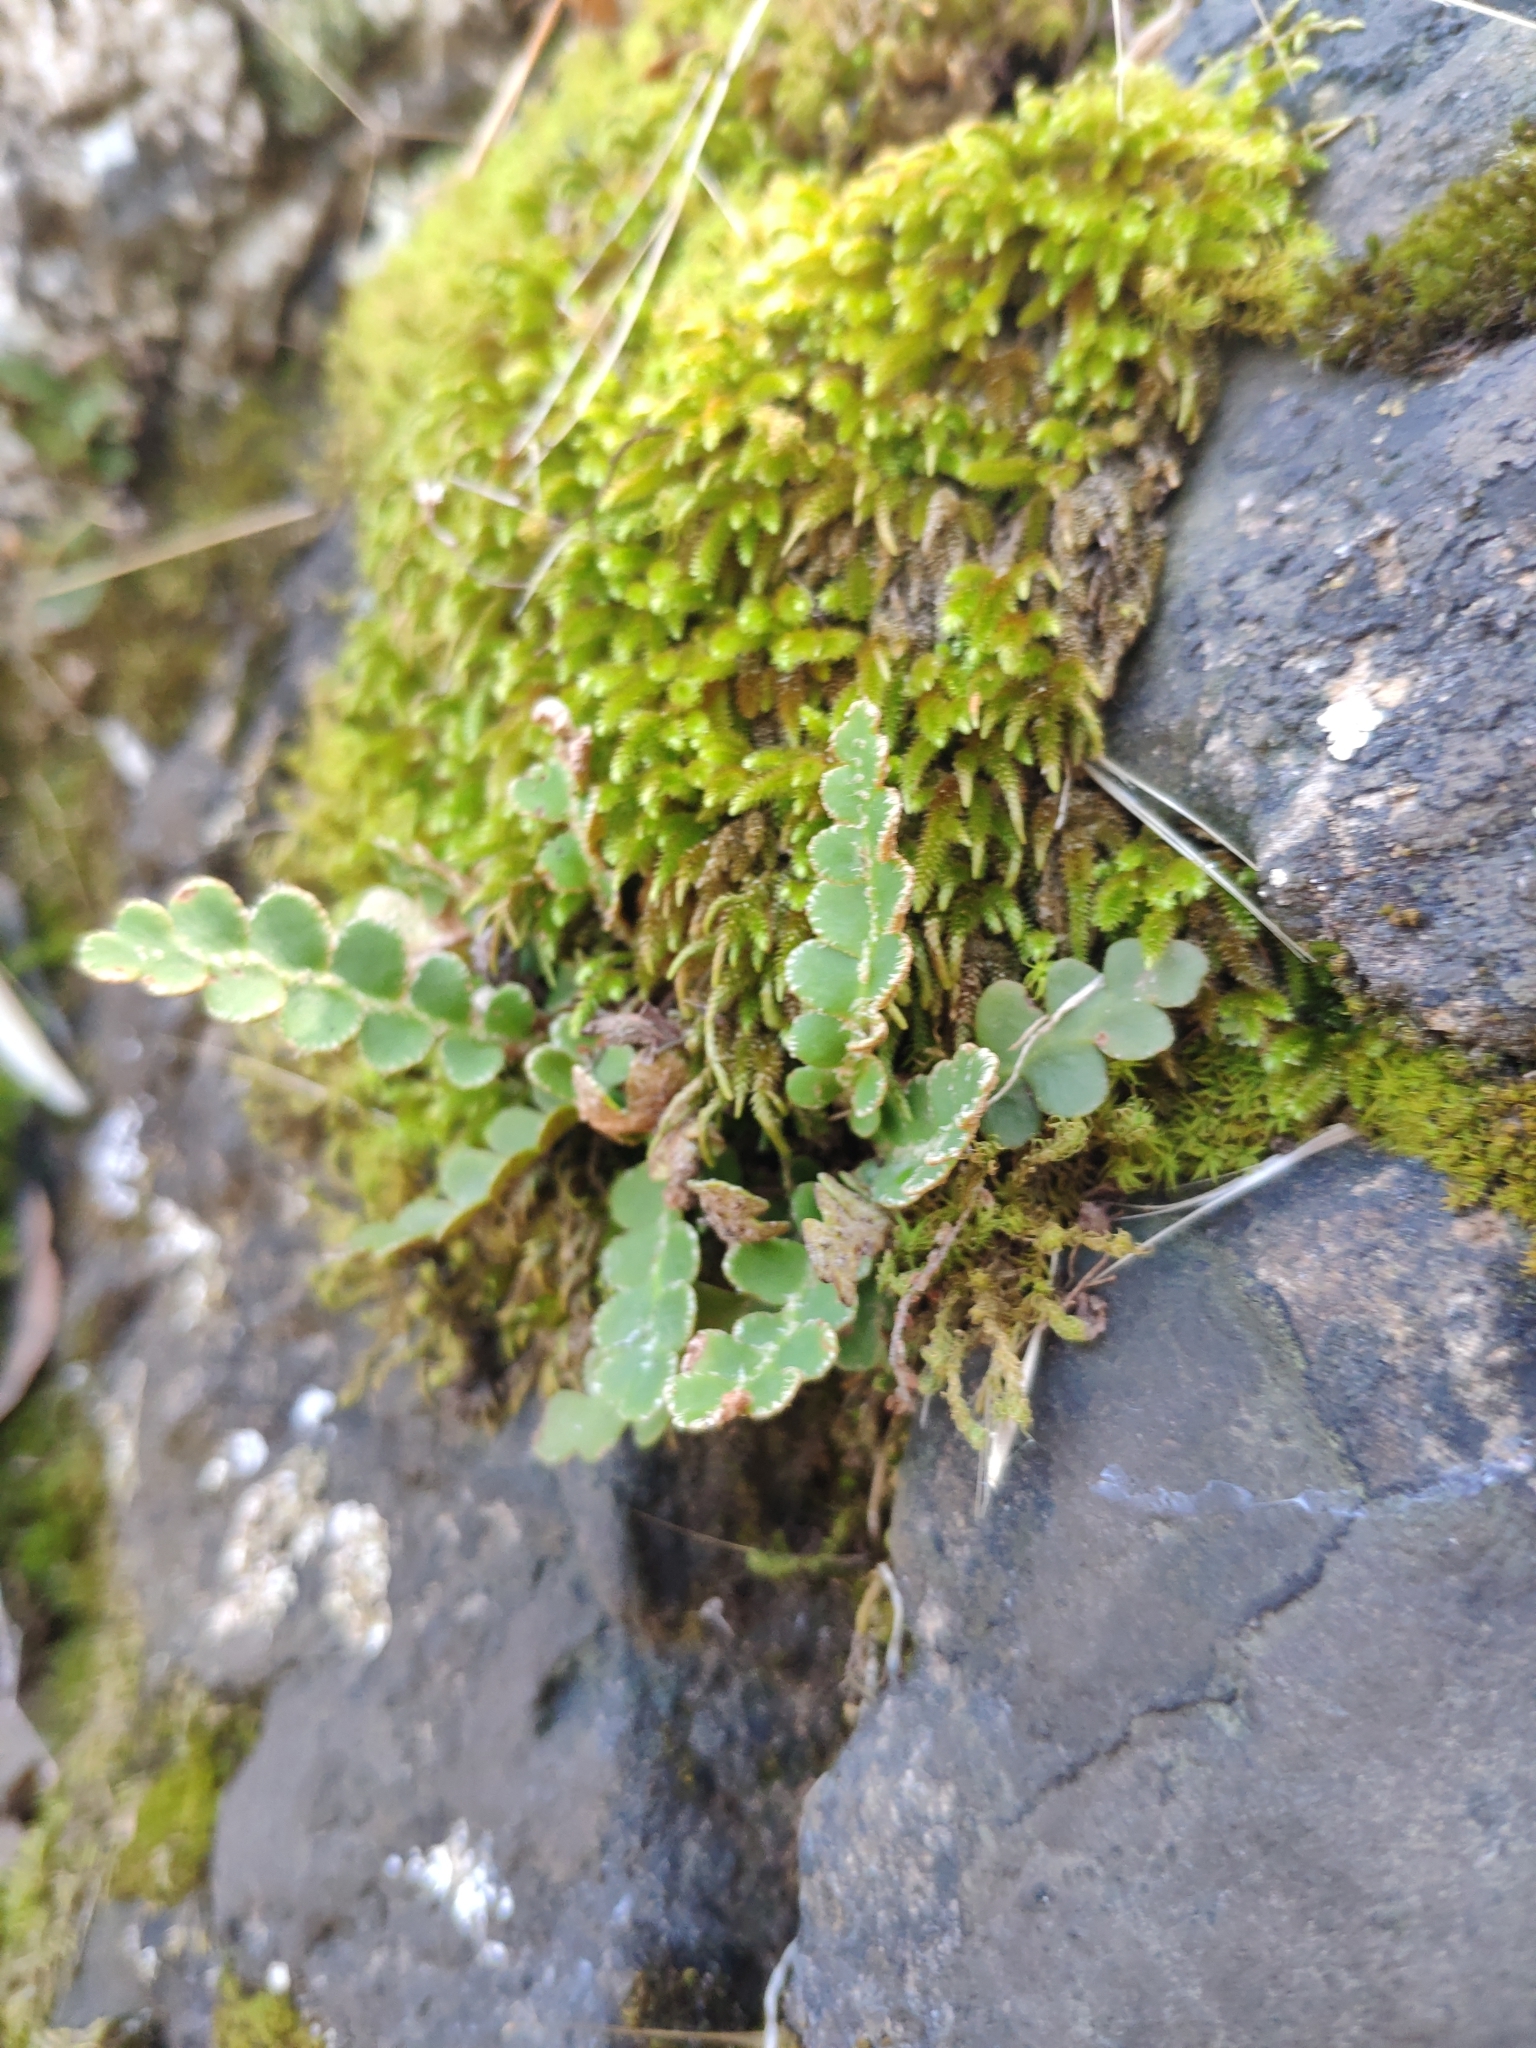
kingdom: Plantae
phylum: Tracheophyta
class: Polypodiopsida
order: Polypodiales
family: Aspleniaceae
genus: Asplenium
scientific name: Asplenium ceterach
